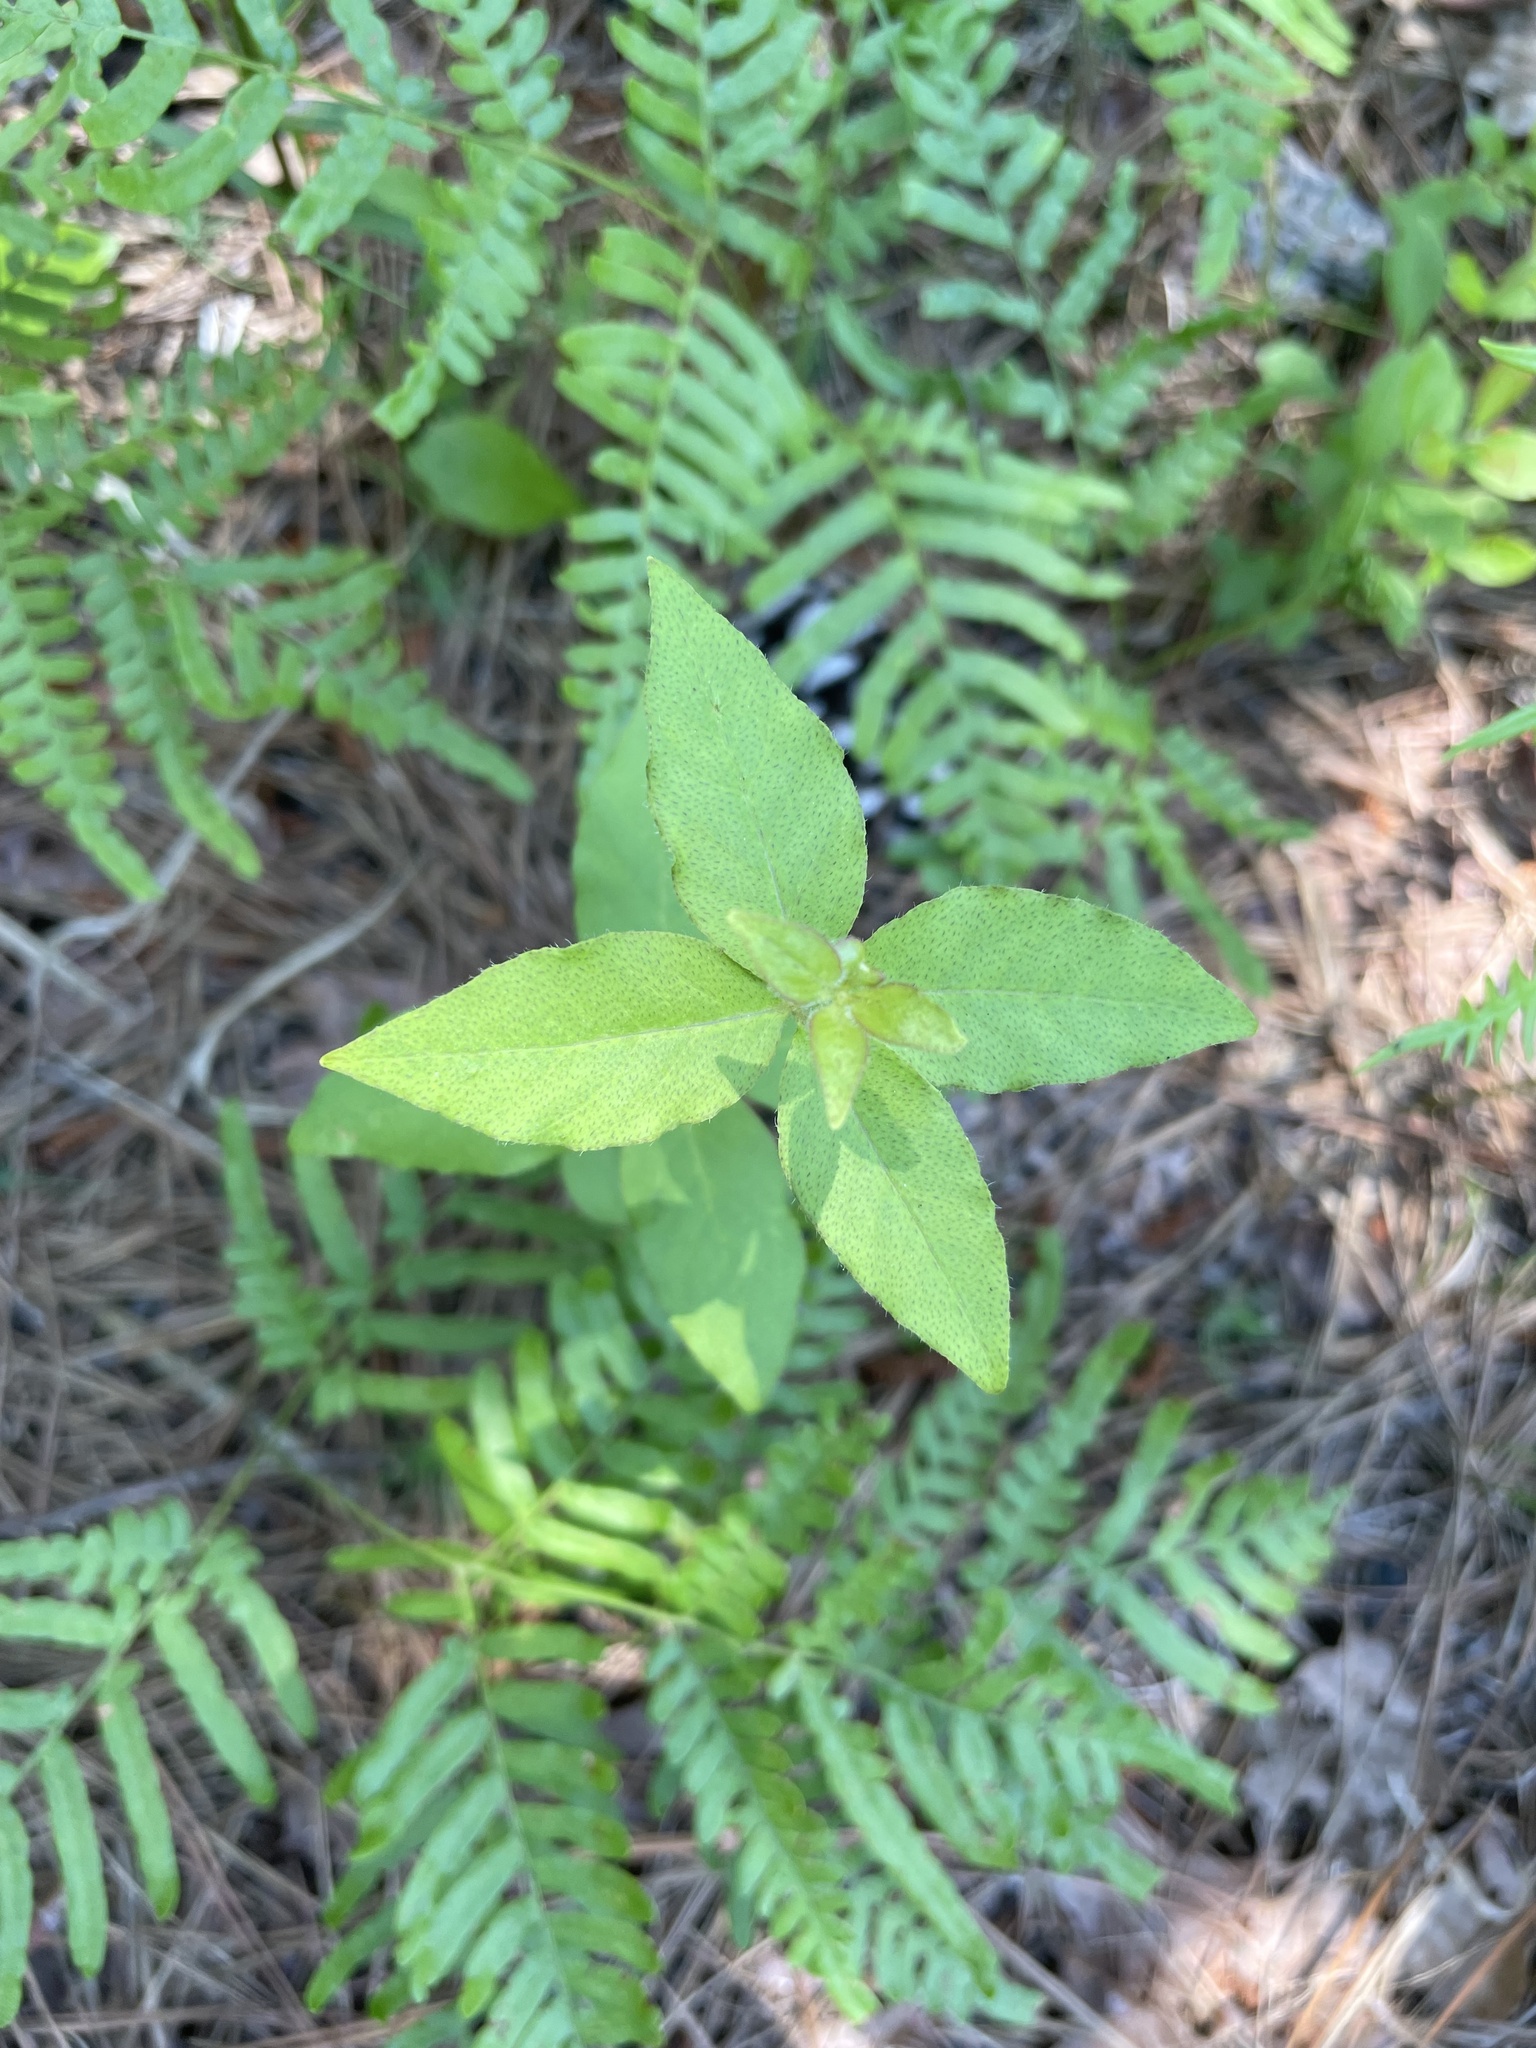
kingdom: Plantae
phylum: Tracheophyta
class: Magnoliopsida
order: Ericales
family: Primulaceae
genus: Lysimachia
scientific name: Lysimachia quadrifolia
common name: Whorled loosestrife
